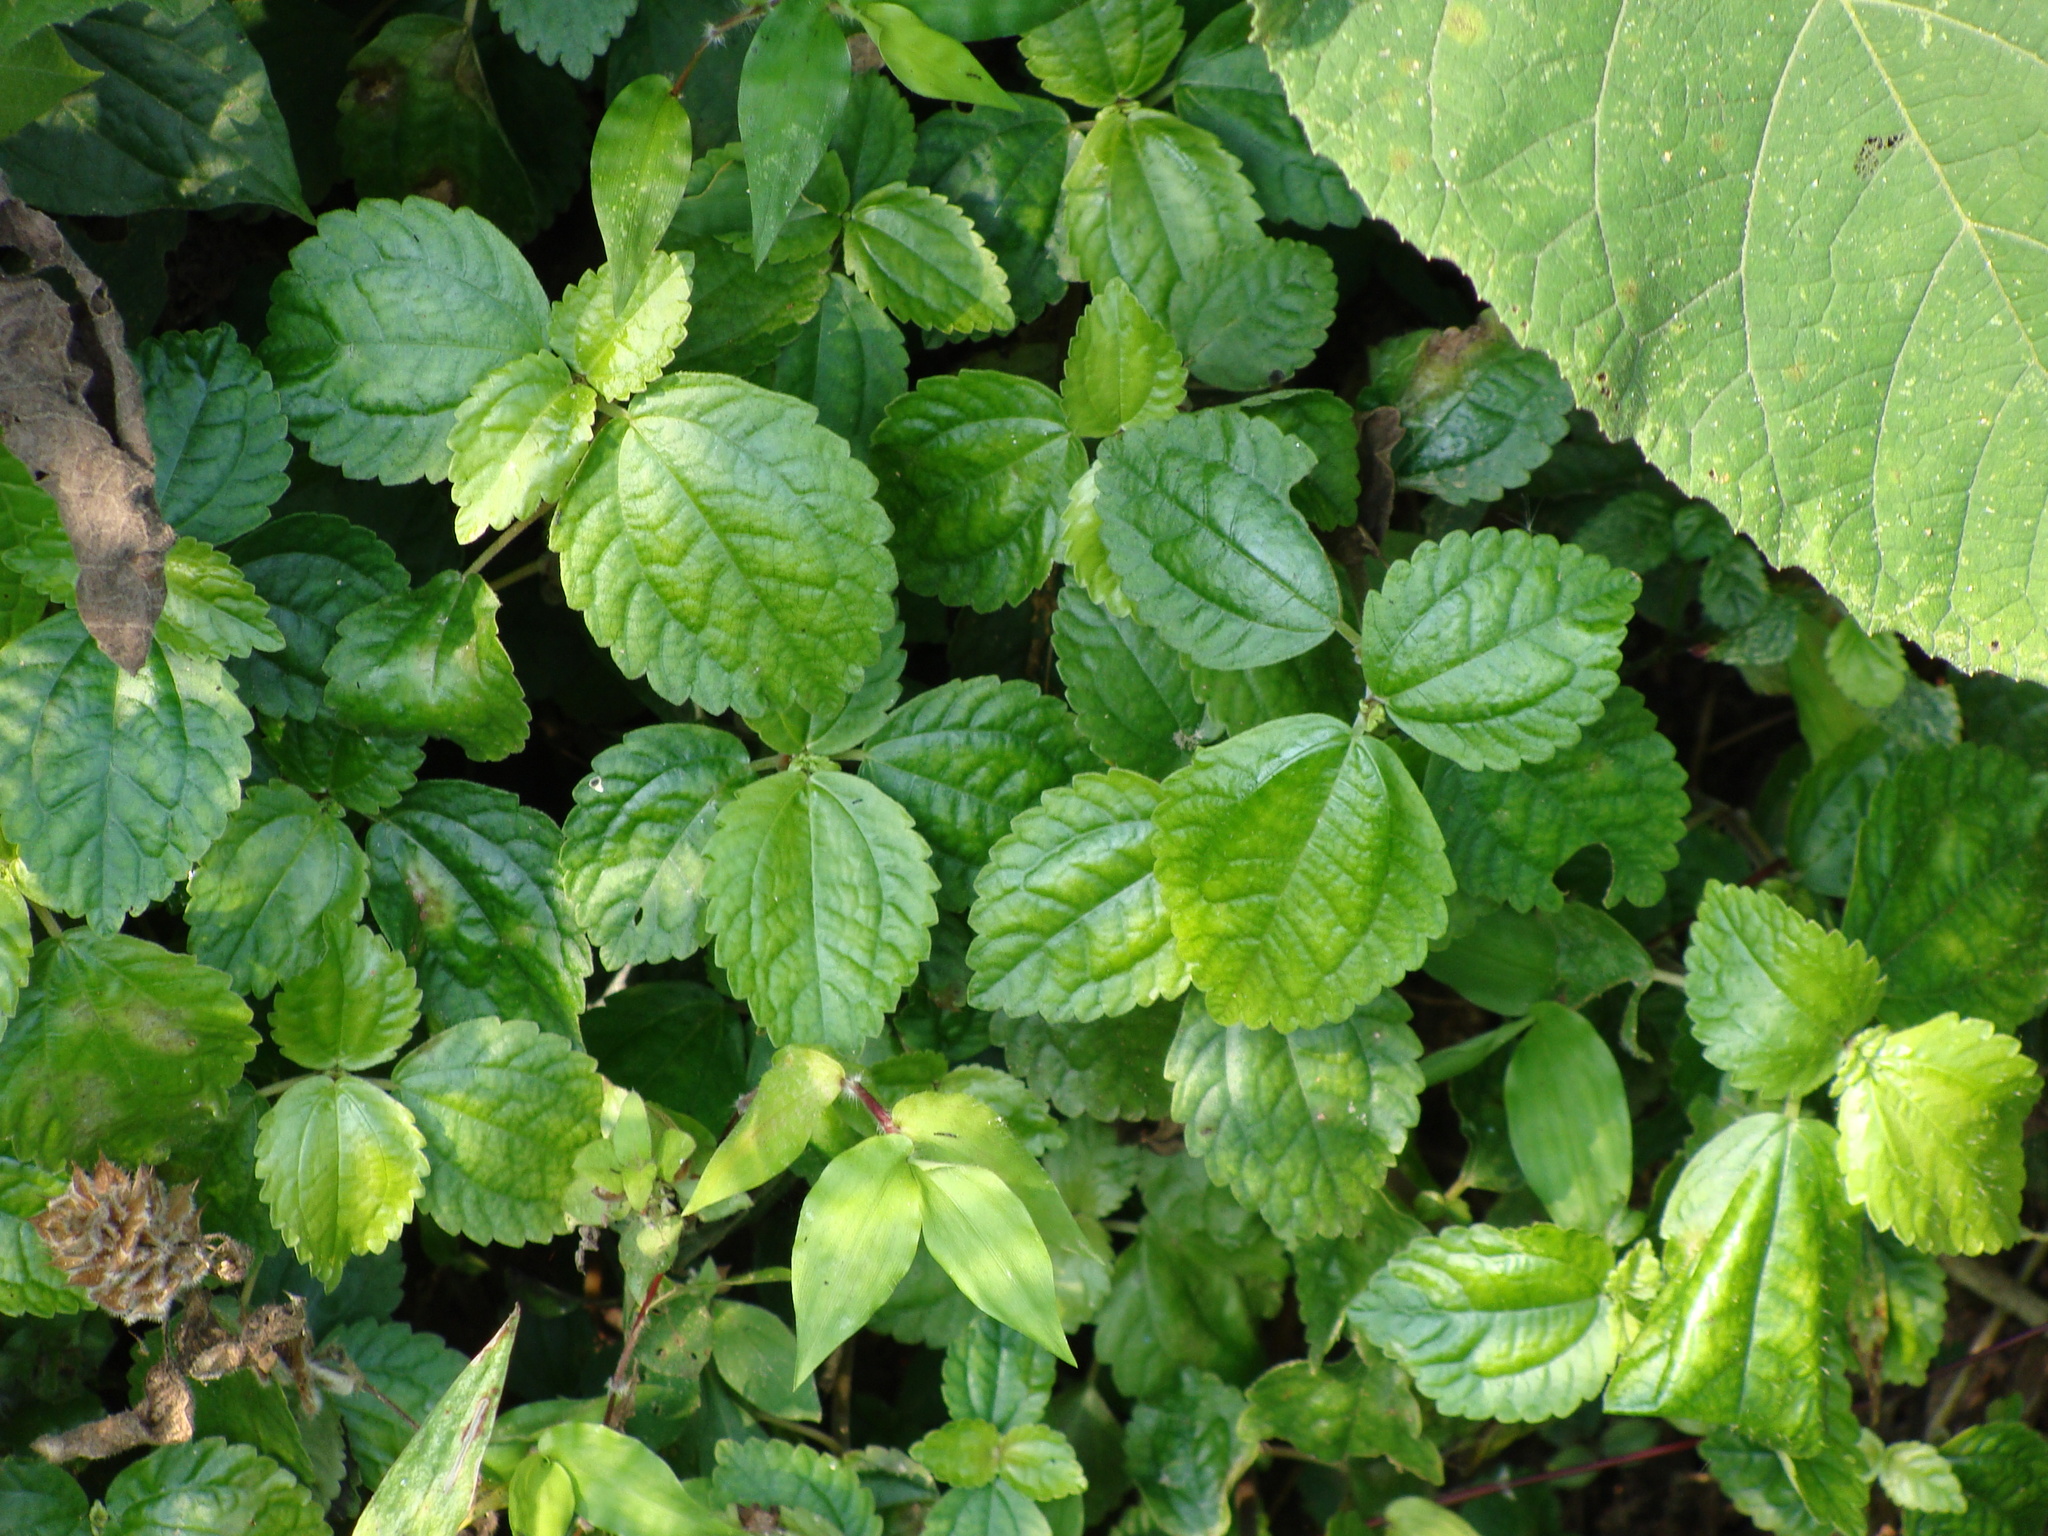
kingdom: Plantae
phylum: Tracheophyta
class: Magnoliopsida
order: Rosales
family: Urticaceae
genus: Pilea
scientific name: Pilea pubescens
